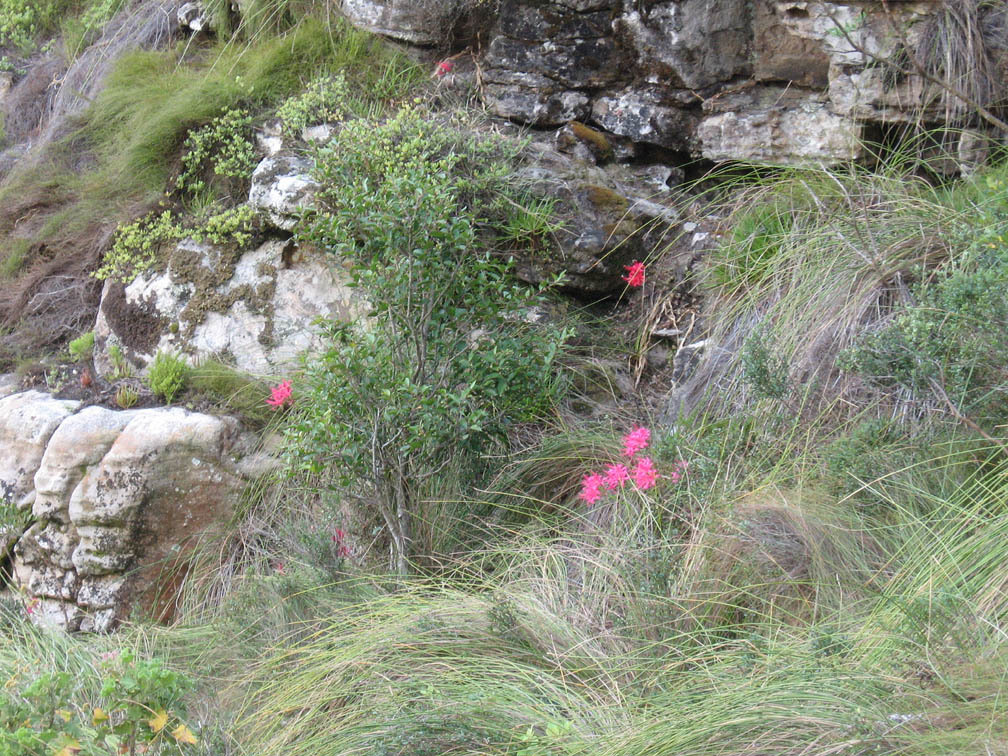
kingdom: Plantae
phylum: Tracheophyta
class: Liliopsida
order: Asparagales
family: Amaryllidaceae
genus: Nerine
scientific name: Nerine sarniensis
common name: Guernsey-lily
